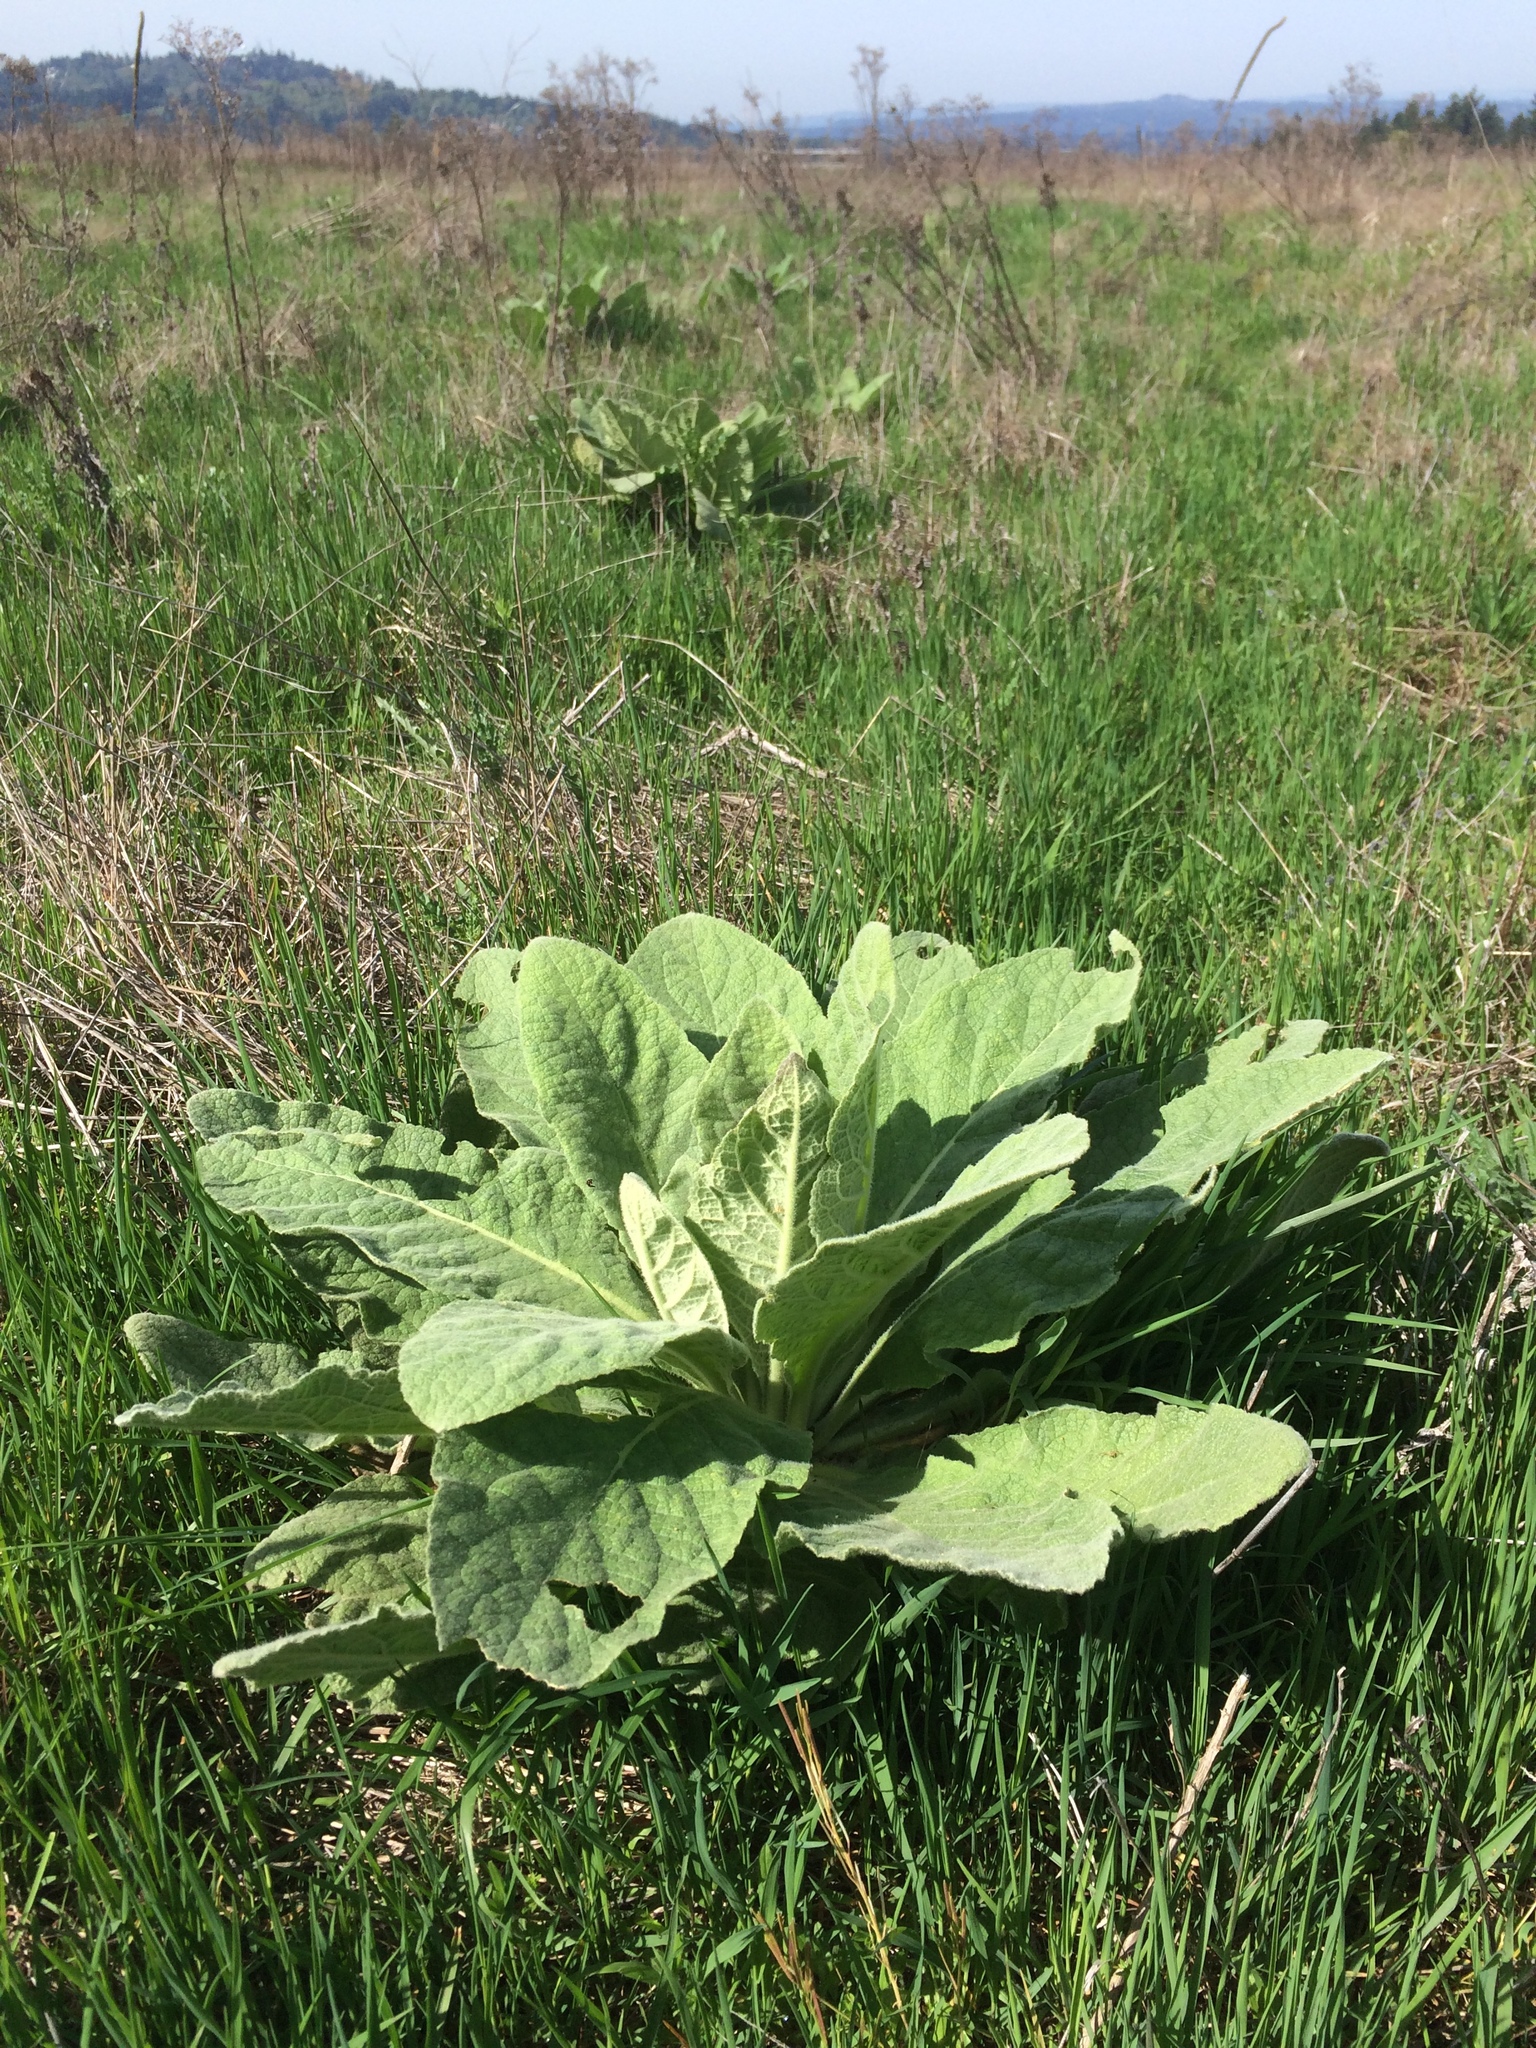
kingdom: Plantae
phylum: Tracheophyta
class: Magnoliopsida
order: Lamiales
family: Scrophulariaceae
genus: Verbascum
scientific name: Verbascum thapsus
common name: Common mullein
